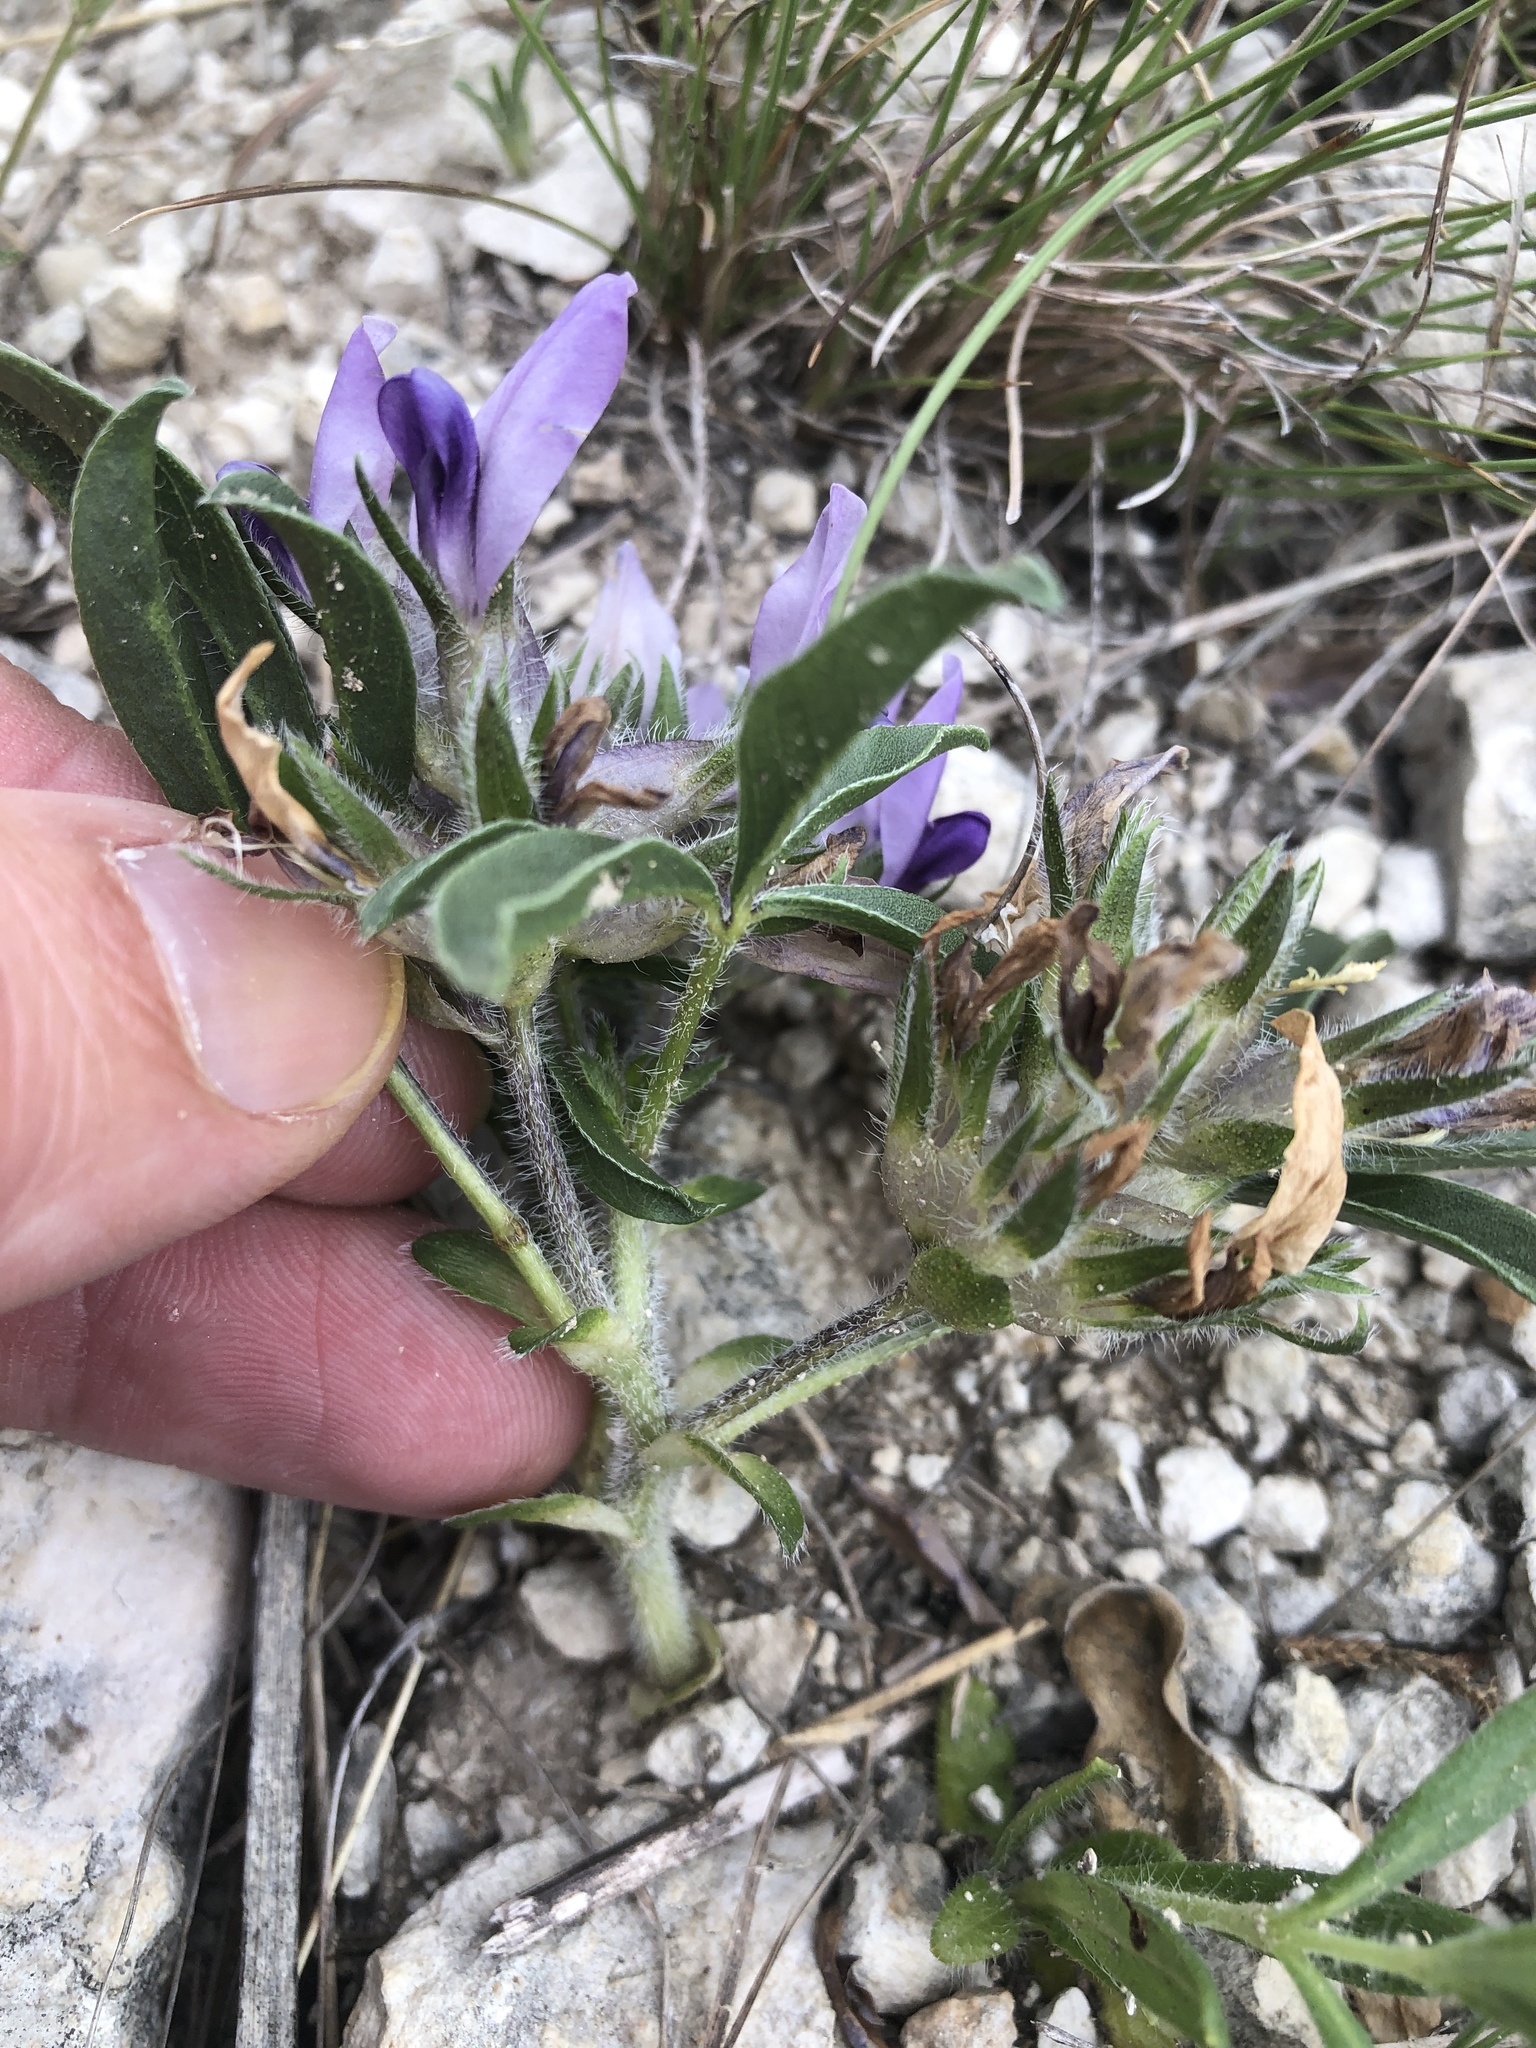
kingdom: Plantae
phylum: Tracheophyta
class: Magnoliopsida
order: Fabales
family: Fabaceae
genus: Pediomelum
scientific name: Pediomelum latestipulatum
